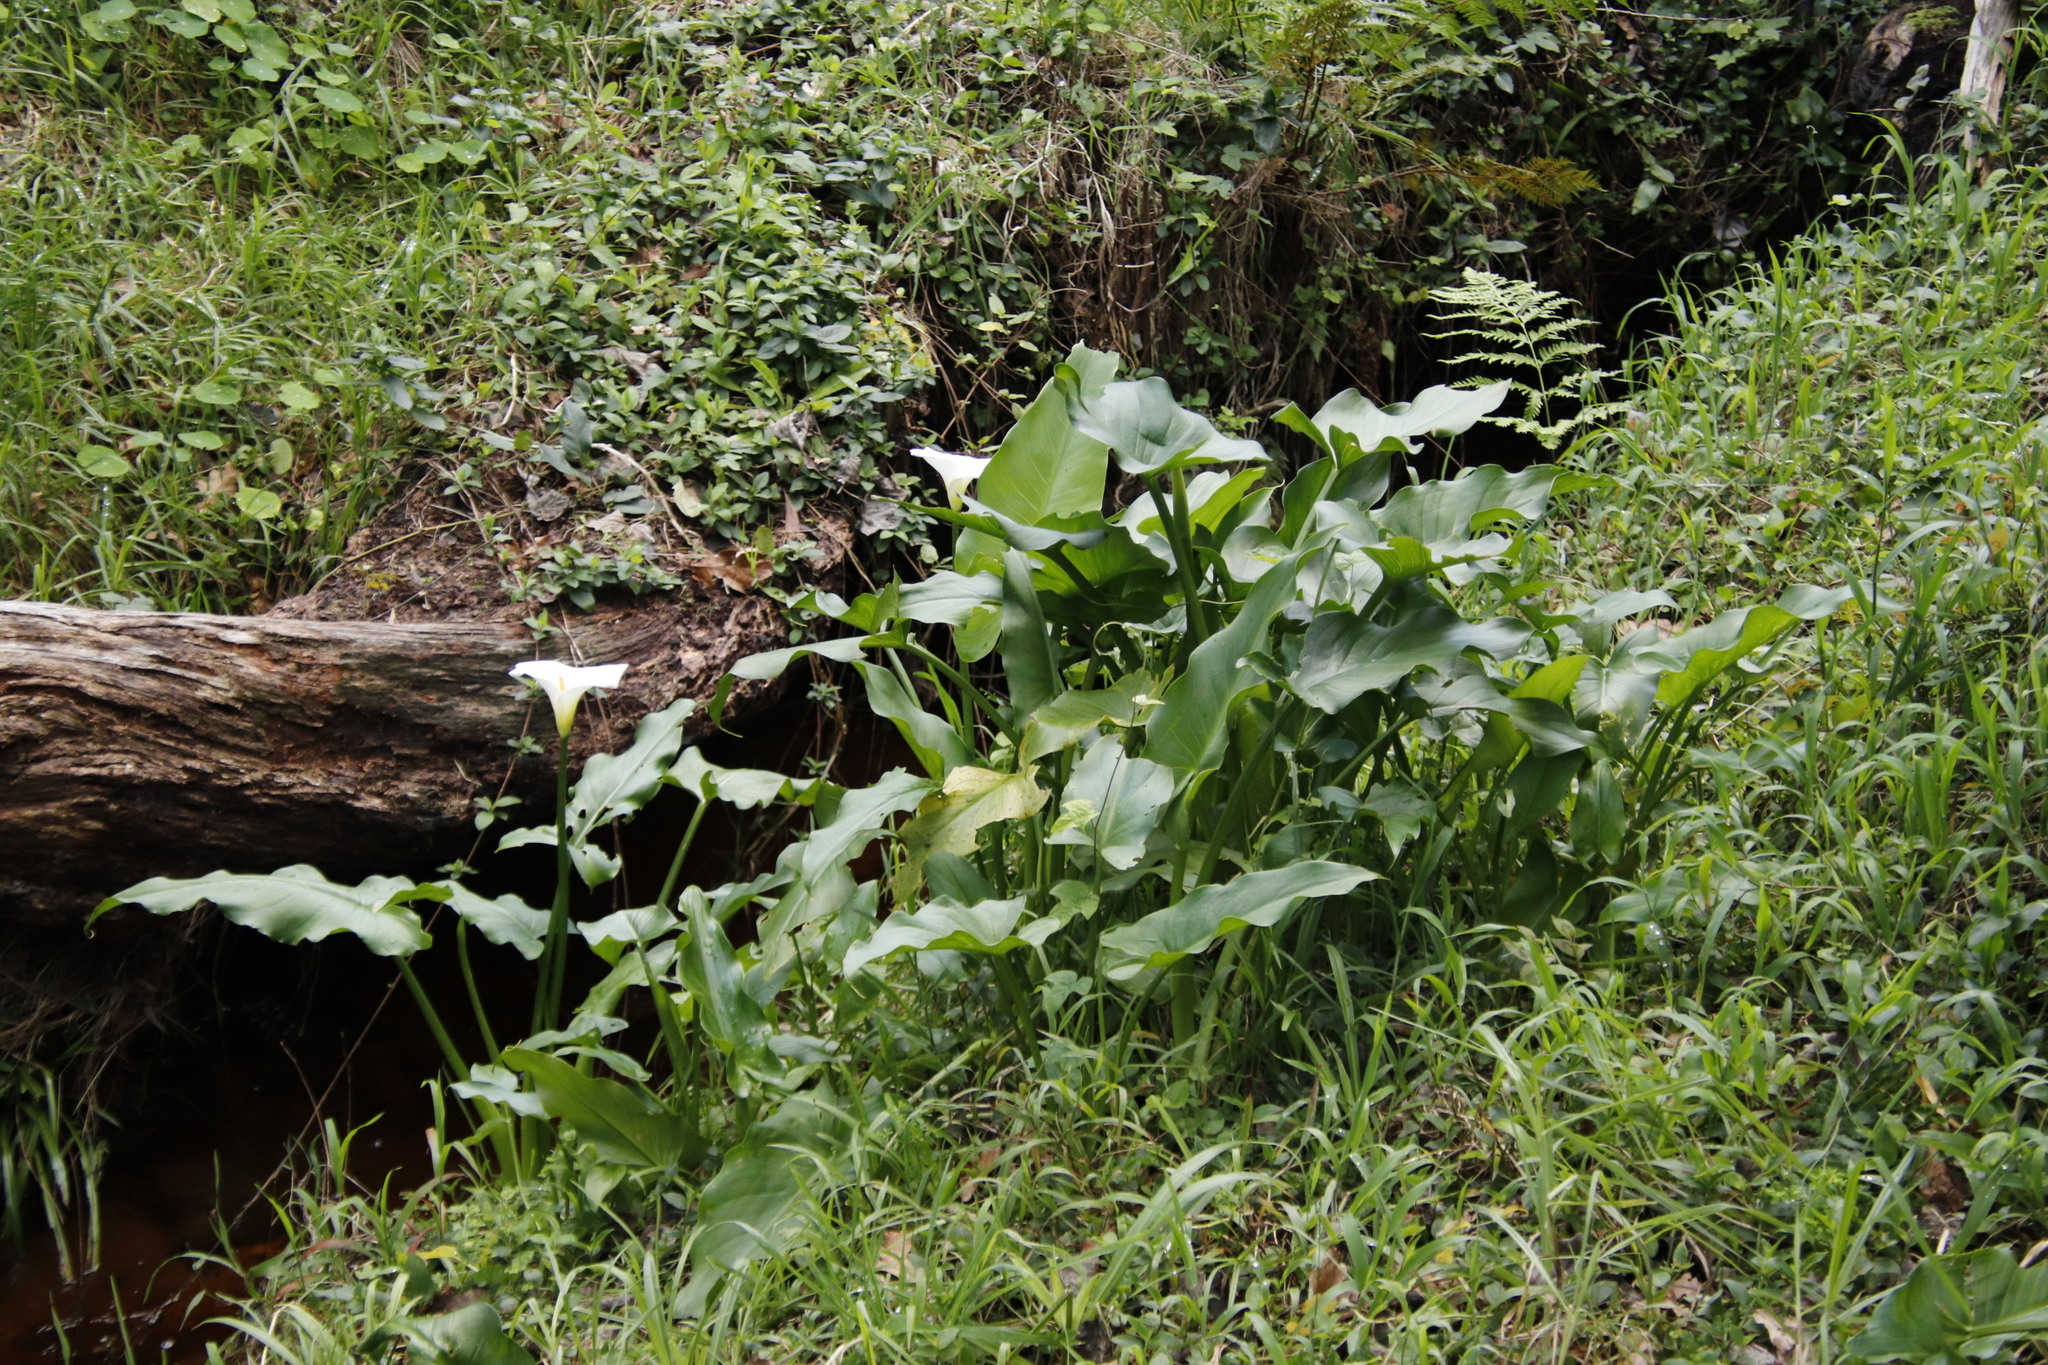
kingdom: Plantae
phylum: Tracheophyta
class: Liliopsida
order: Alismatales
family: Araceae
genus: Zantedeschia
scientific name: Zantedeschia aethiopica
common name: Altar-lily
